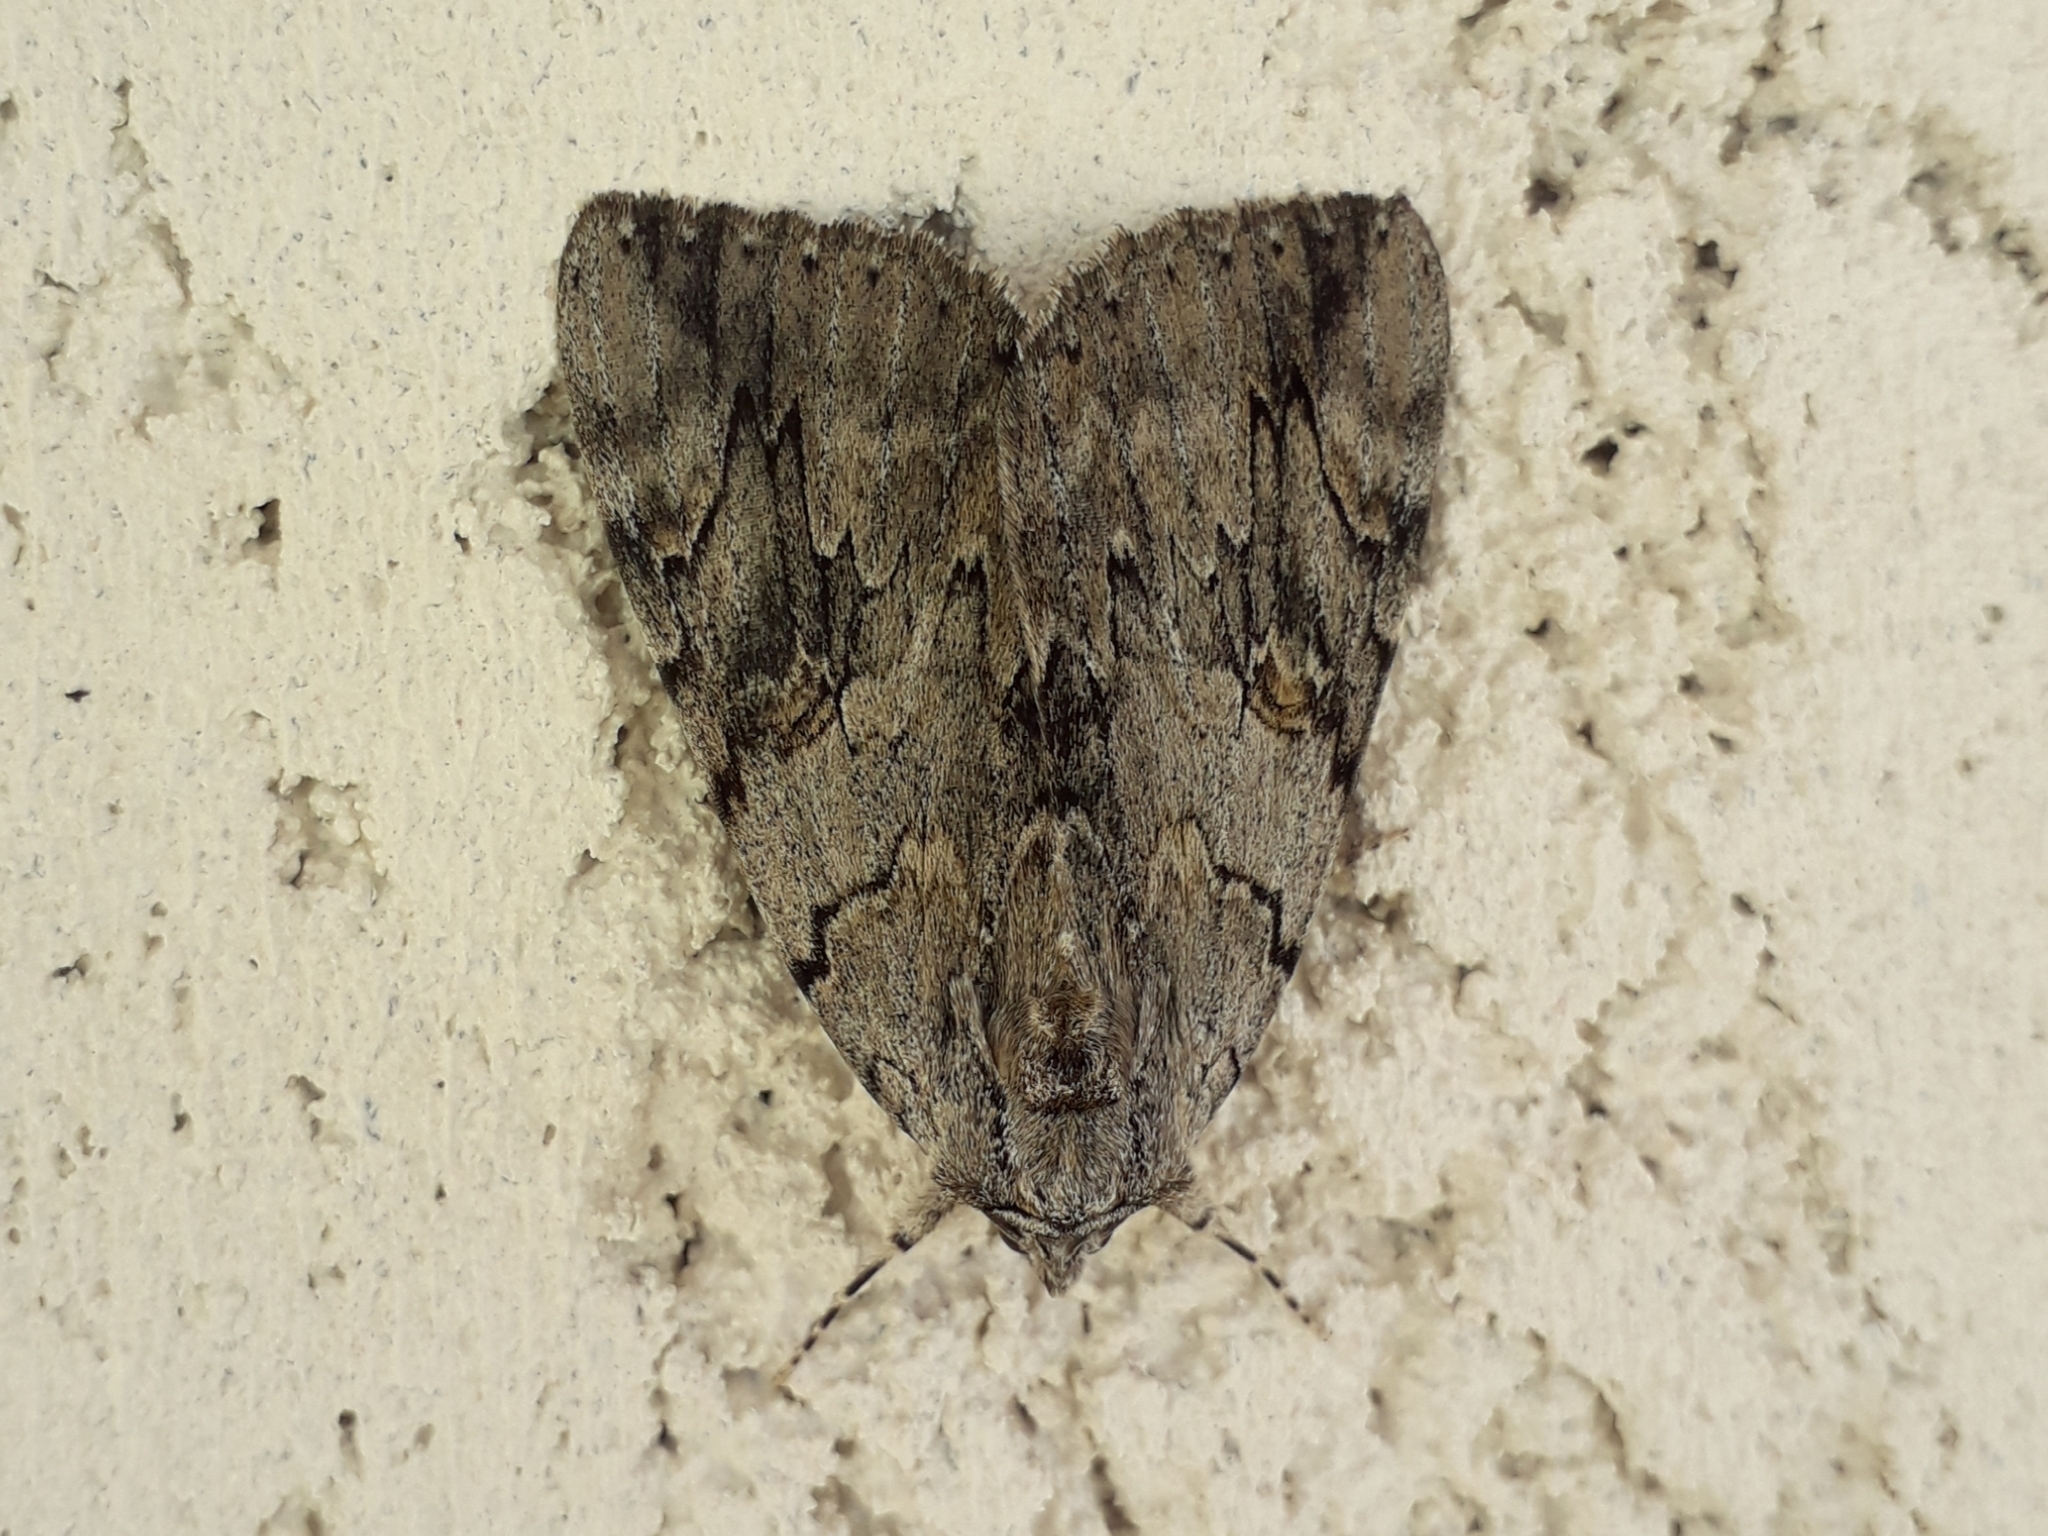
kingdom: Animalia
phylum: Arthropoda
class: Insecta
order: Lepidoptera
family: Erebidae
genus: Catocala
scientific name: Catocala electa
